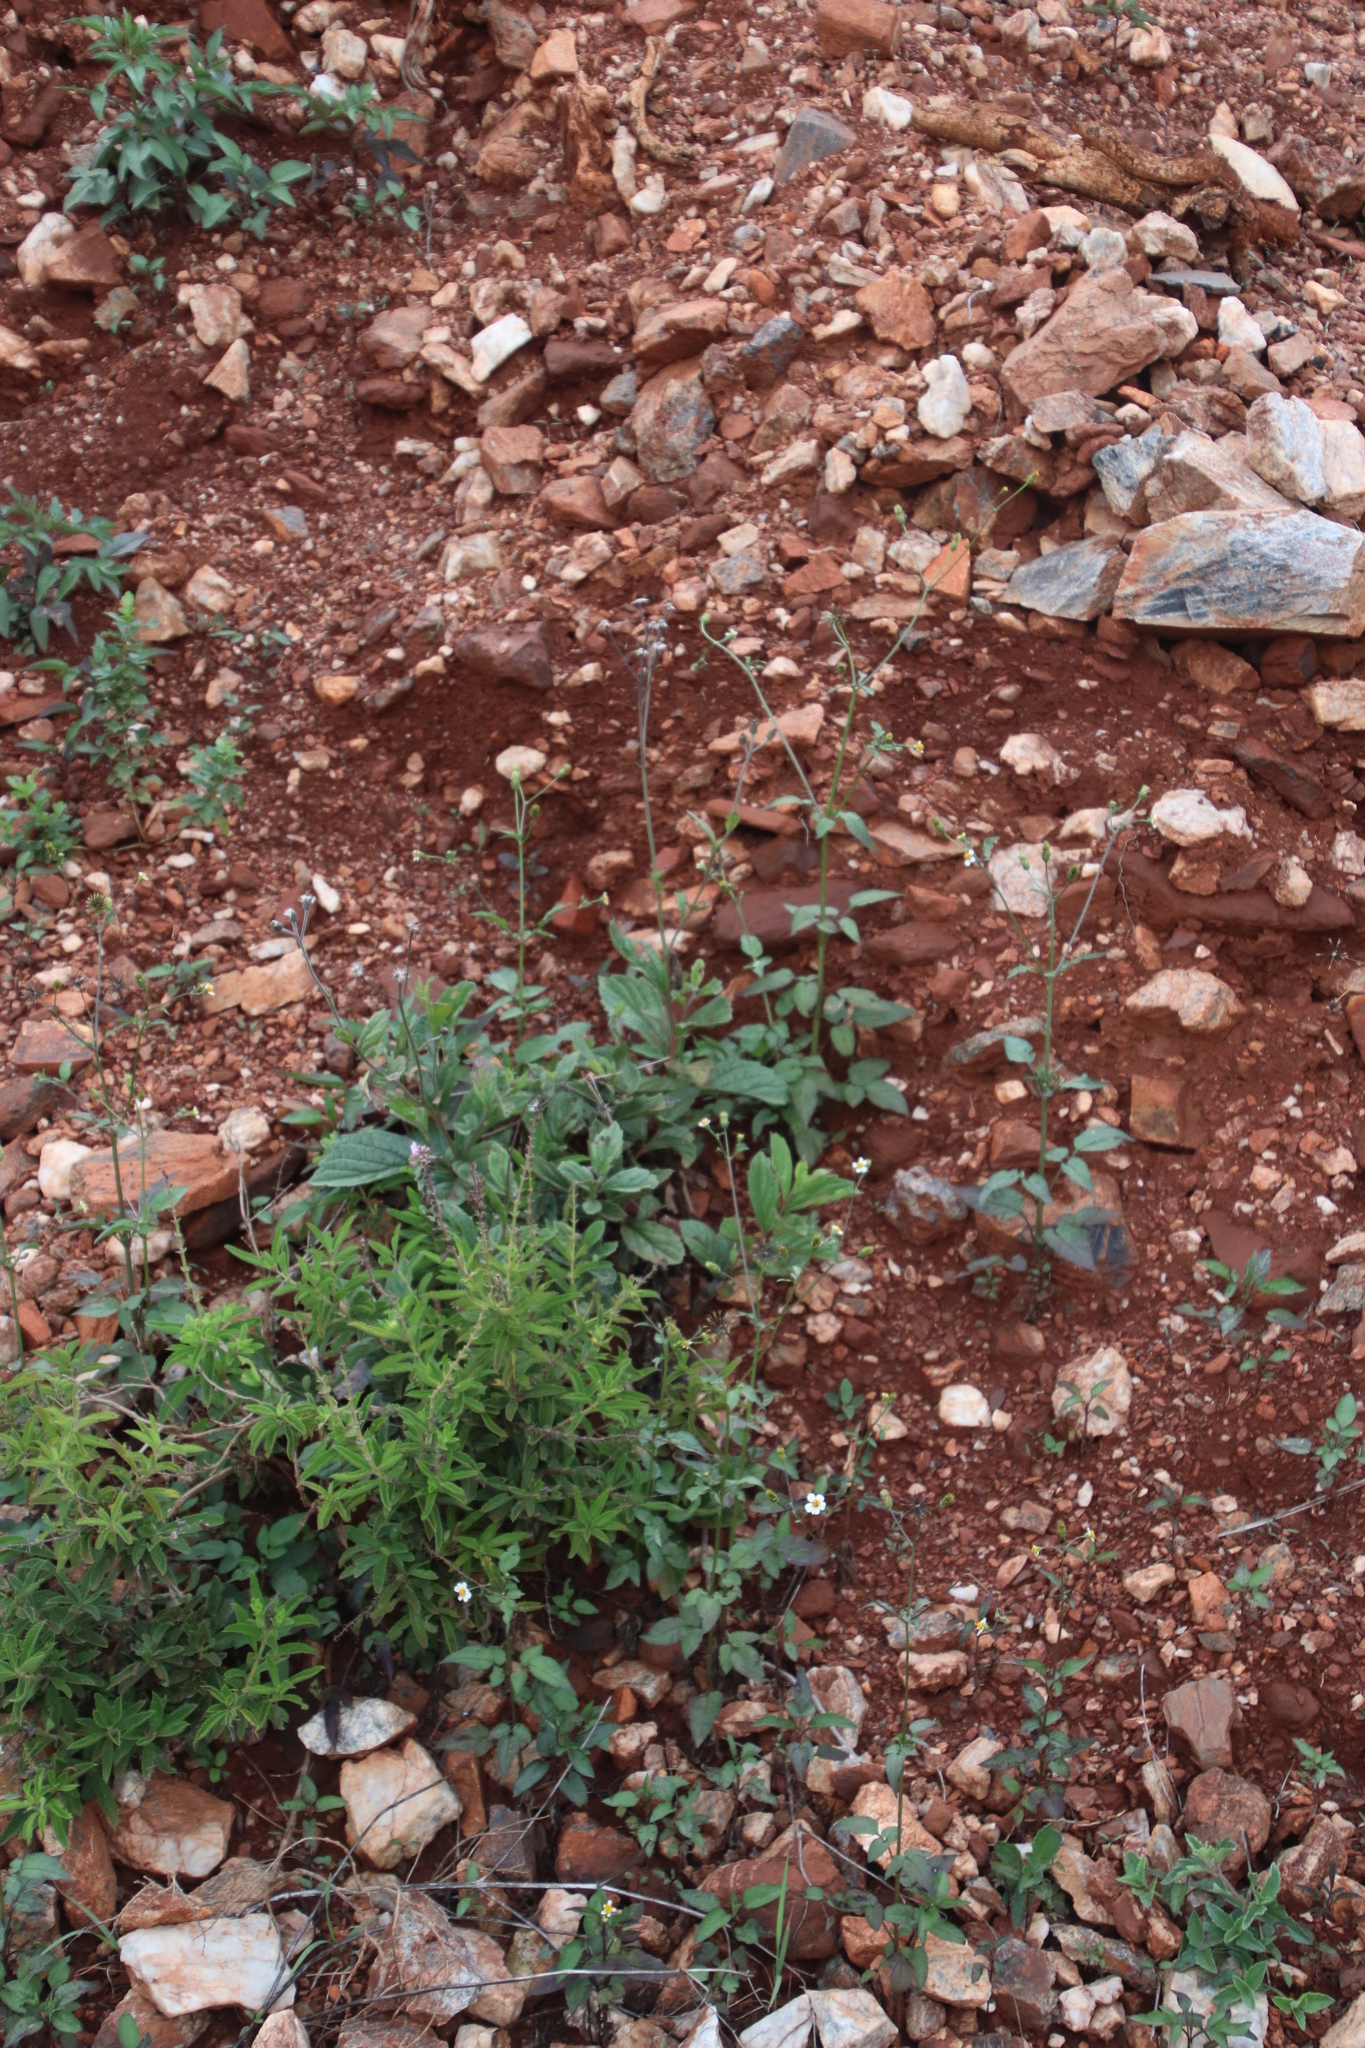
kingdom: Plantae
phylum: Tracheophyta
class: Magnoliopsida
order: Asterales
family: Asteraceae
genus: Bidens
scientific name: Bidens pilosa
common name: Black-jack
